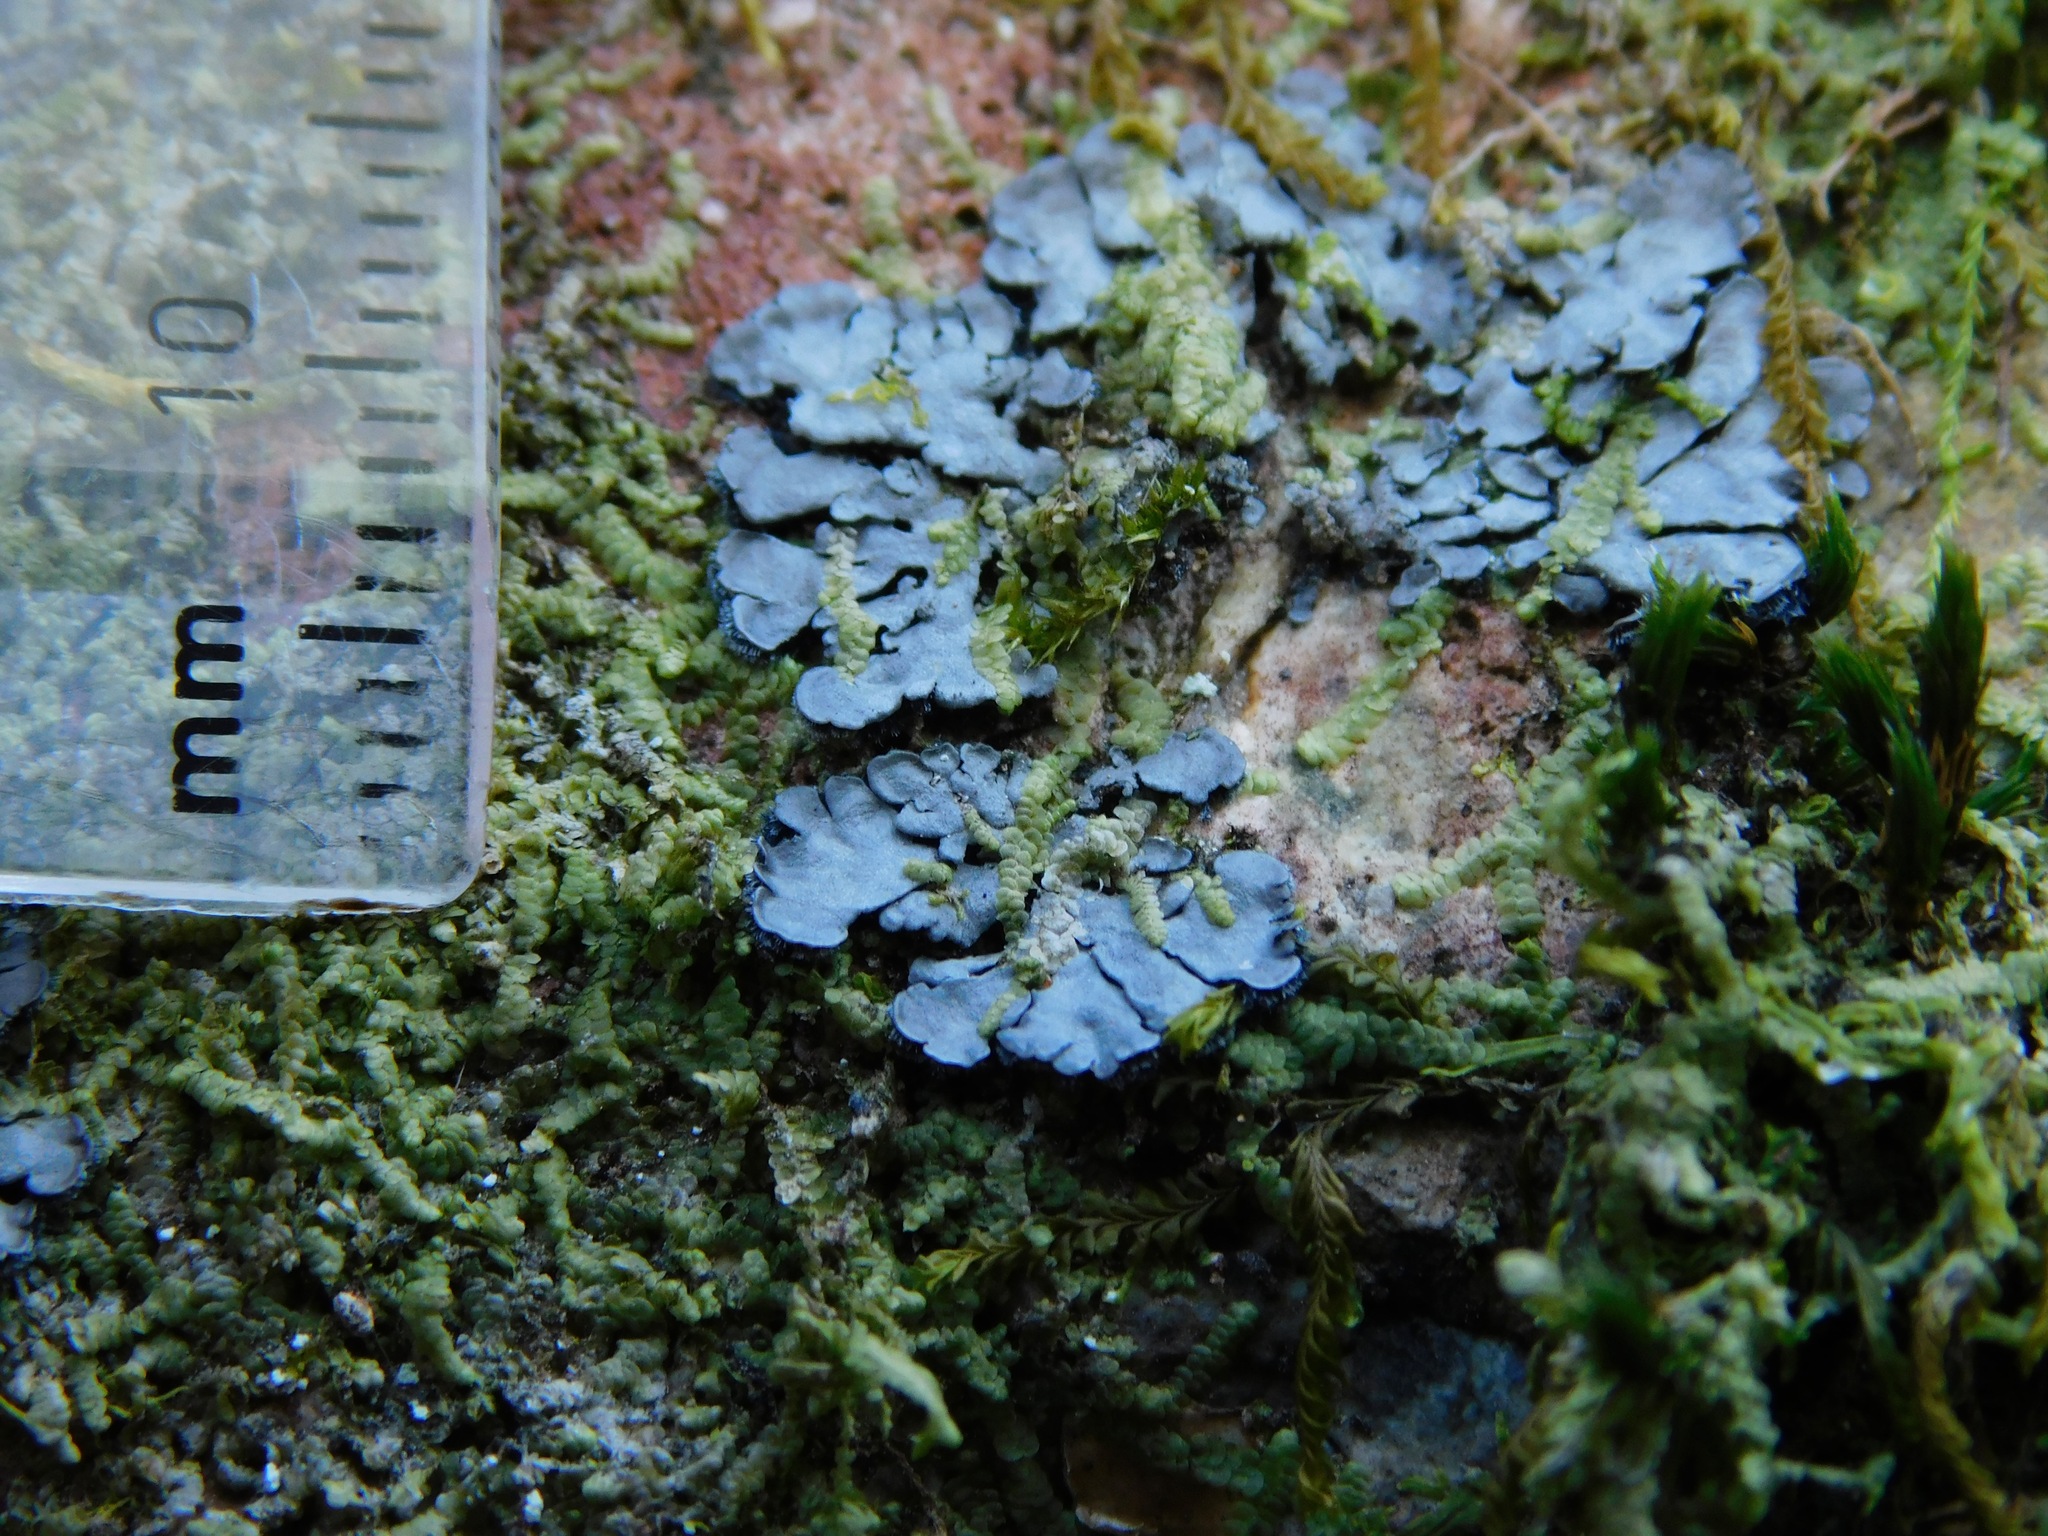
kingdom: Fungi
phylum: Ascomycota
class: Lecanoromycetes
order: Peltigerales
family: Coccocarpiaceae
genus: Coccocarpia
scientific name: Coccocarpia palmicola
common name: Salted shell lichen
